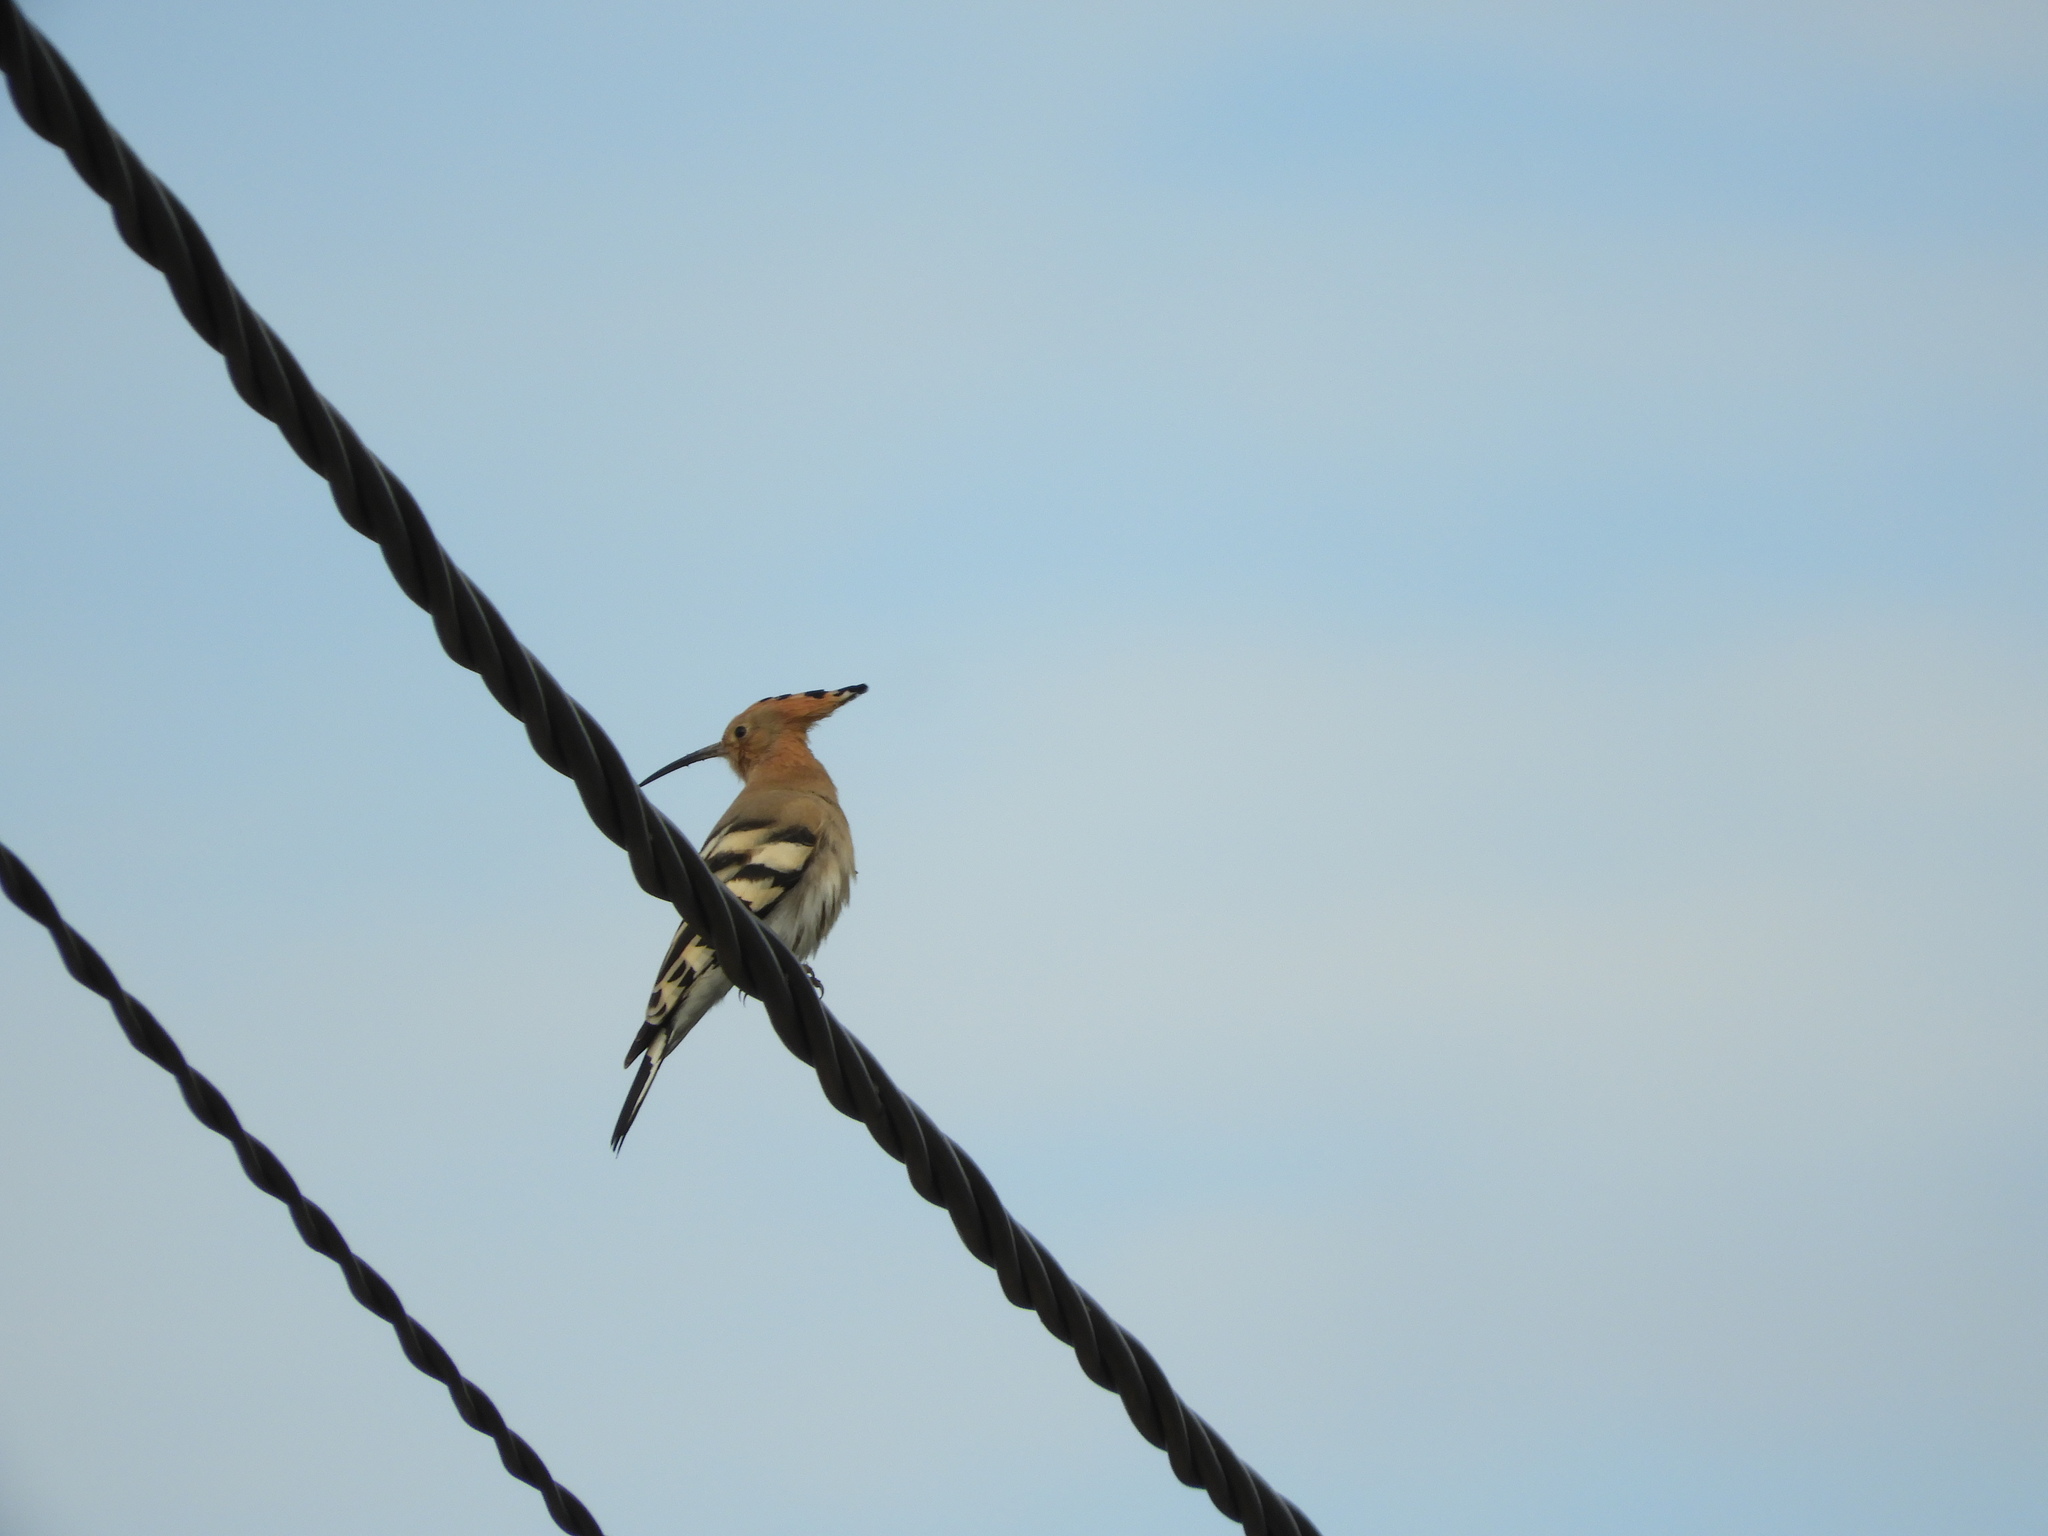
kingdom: Animalia
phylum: Chordata
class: Aves
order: Bucerotiformes
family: Upupidae
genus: Upupa
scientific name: Upupa epops
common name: Eurasian hoopoe
